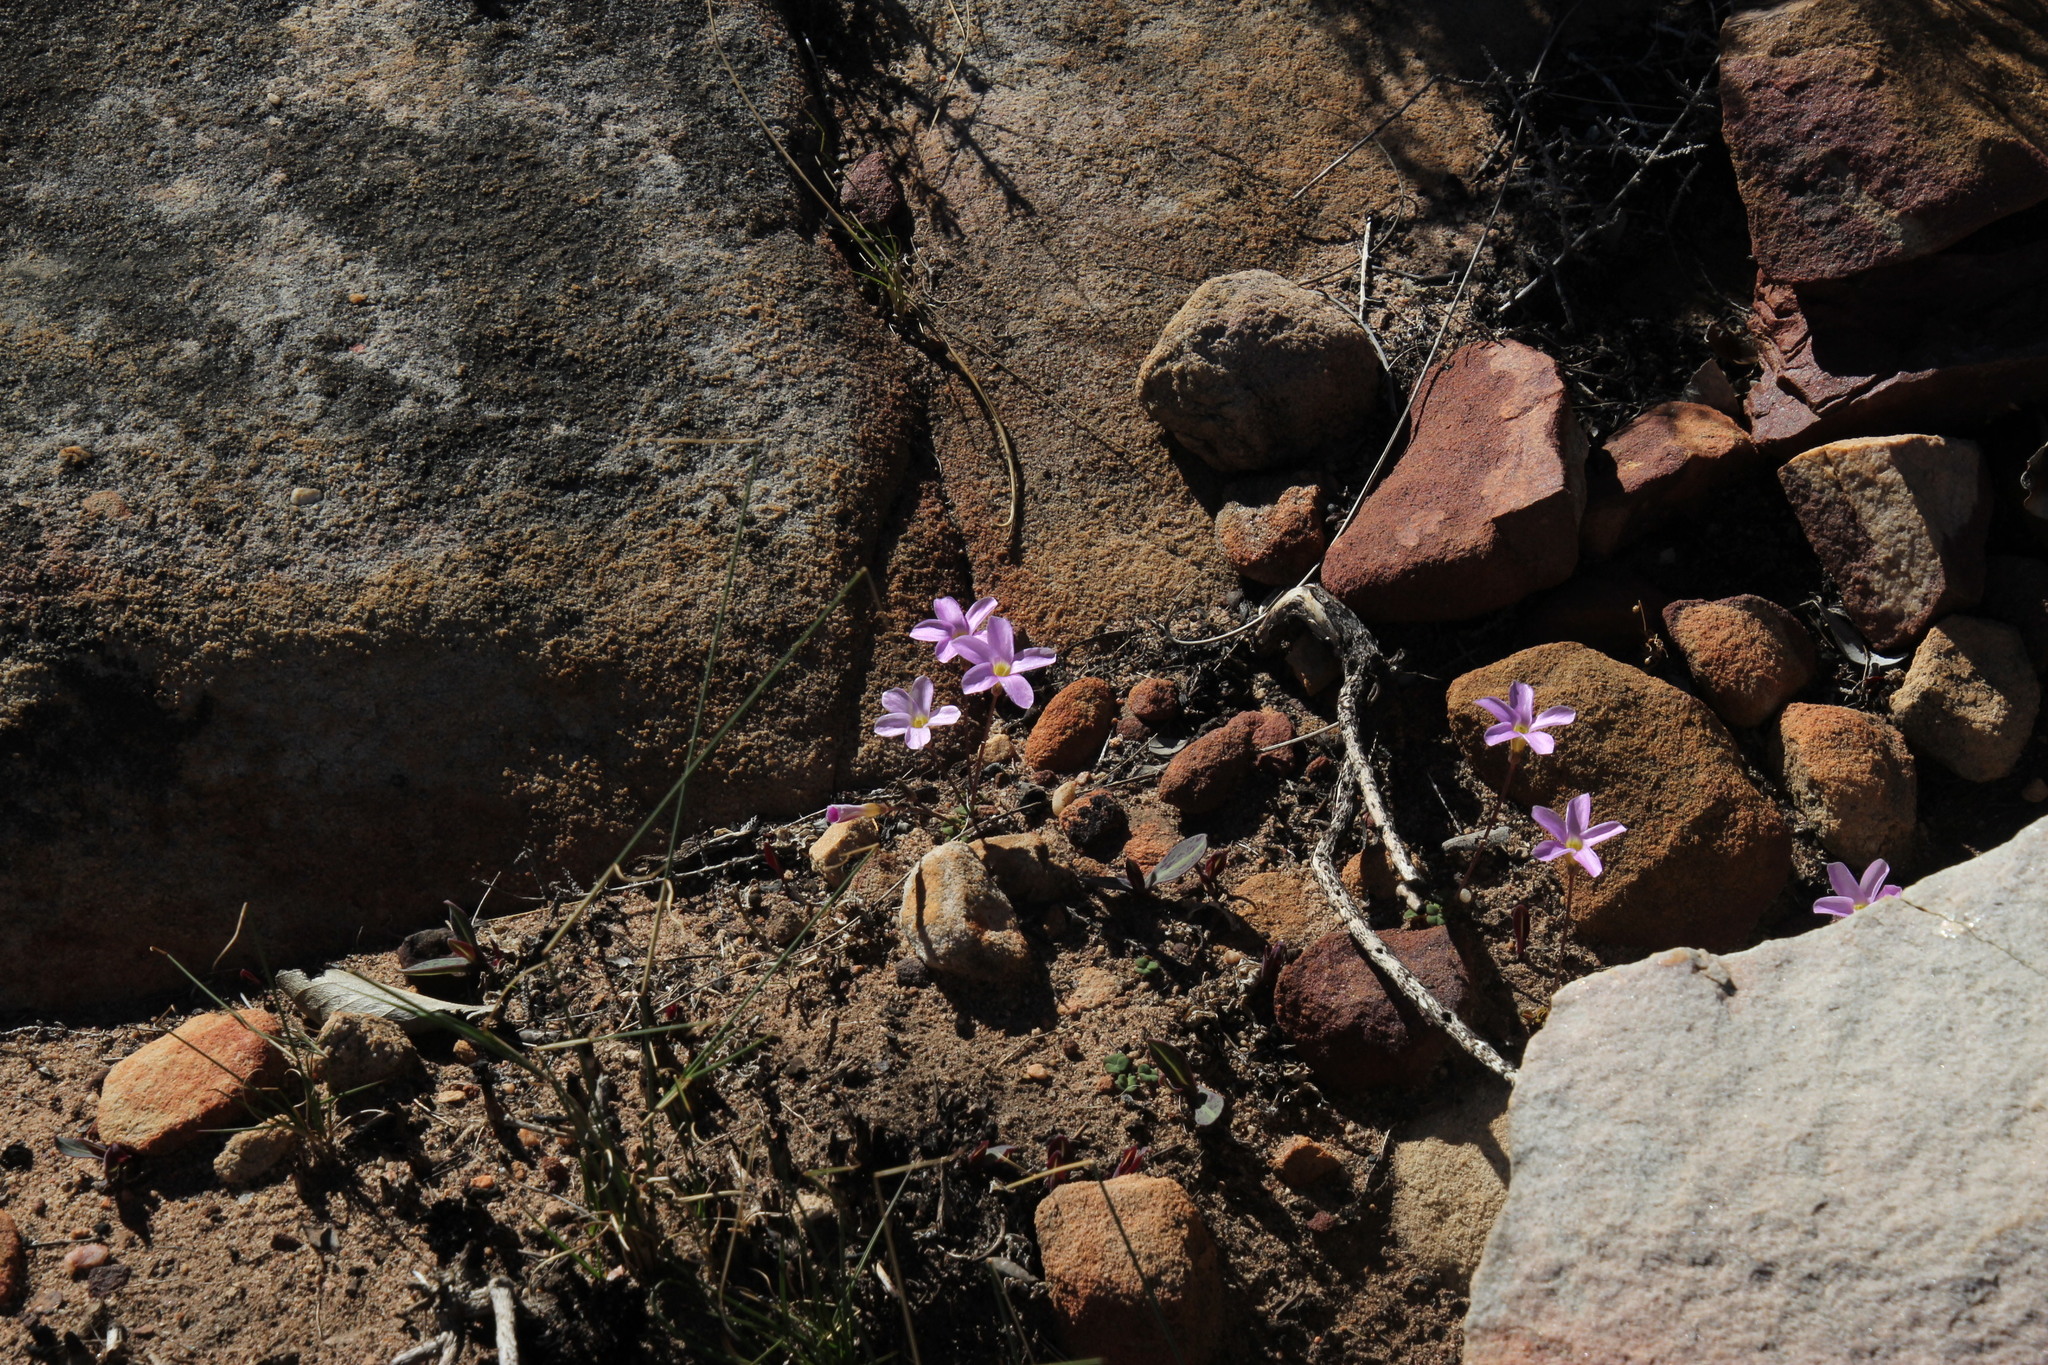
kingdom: Plantae
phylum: Tracheophyta
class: Magnoliopsida
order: Oxalidales
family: Oxalidaceae
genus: Oxalis
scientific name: Oxalis pocockiae
